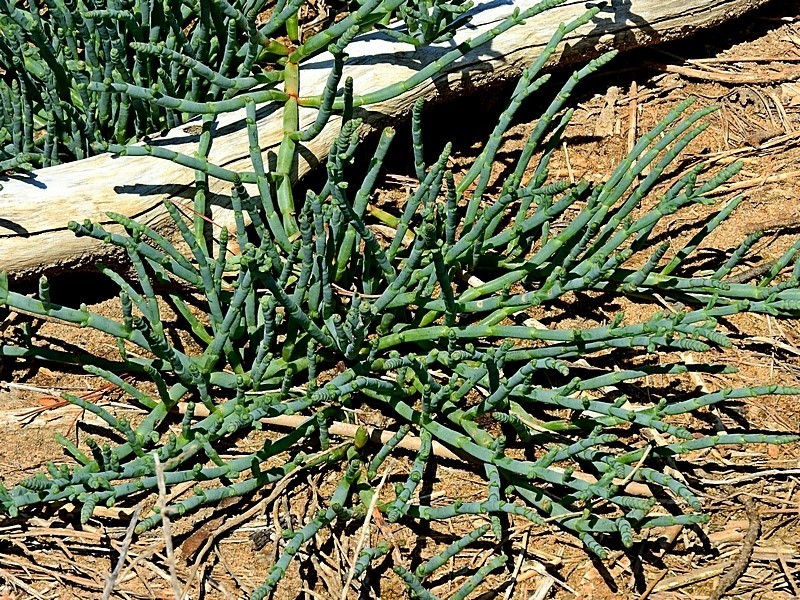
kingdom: Plantae
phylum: Tracheophyta
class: Magnoliopsida
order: Caryophyllales
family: Amaranthaceae
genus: Salicornia
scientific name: Salicornia quinqueflora
